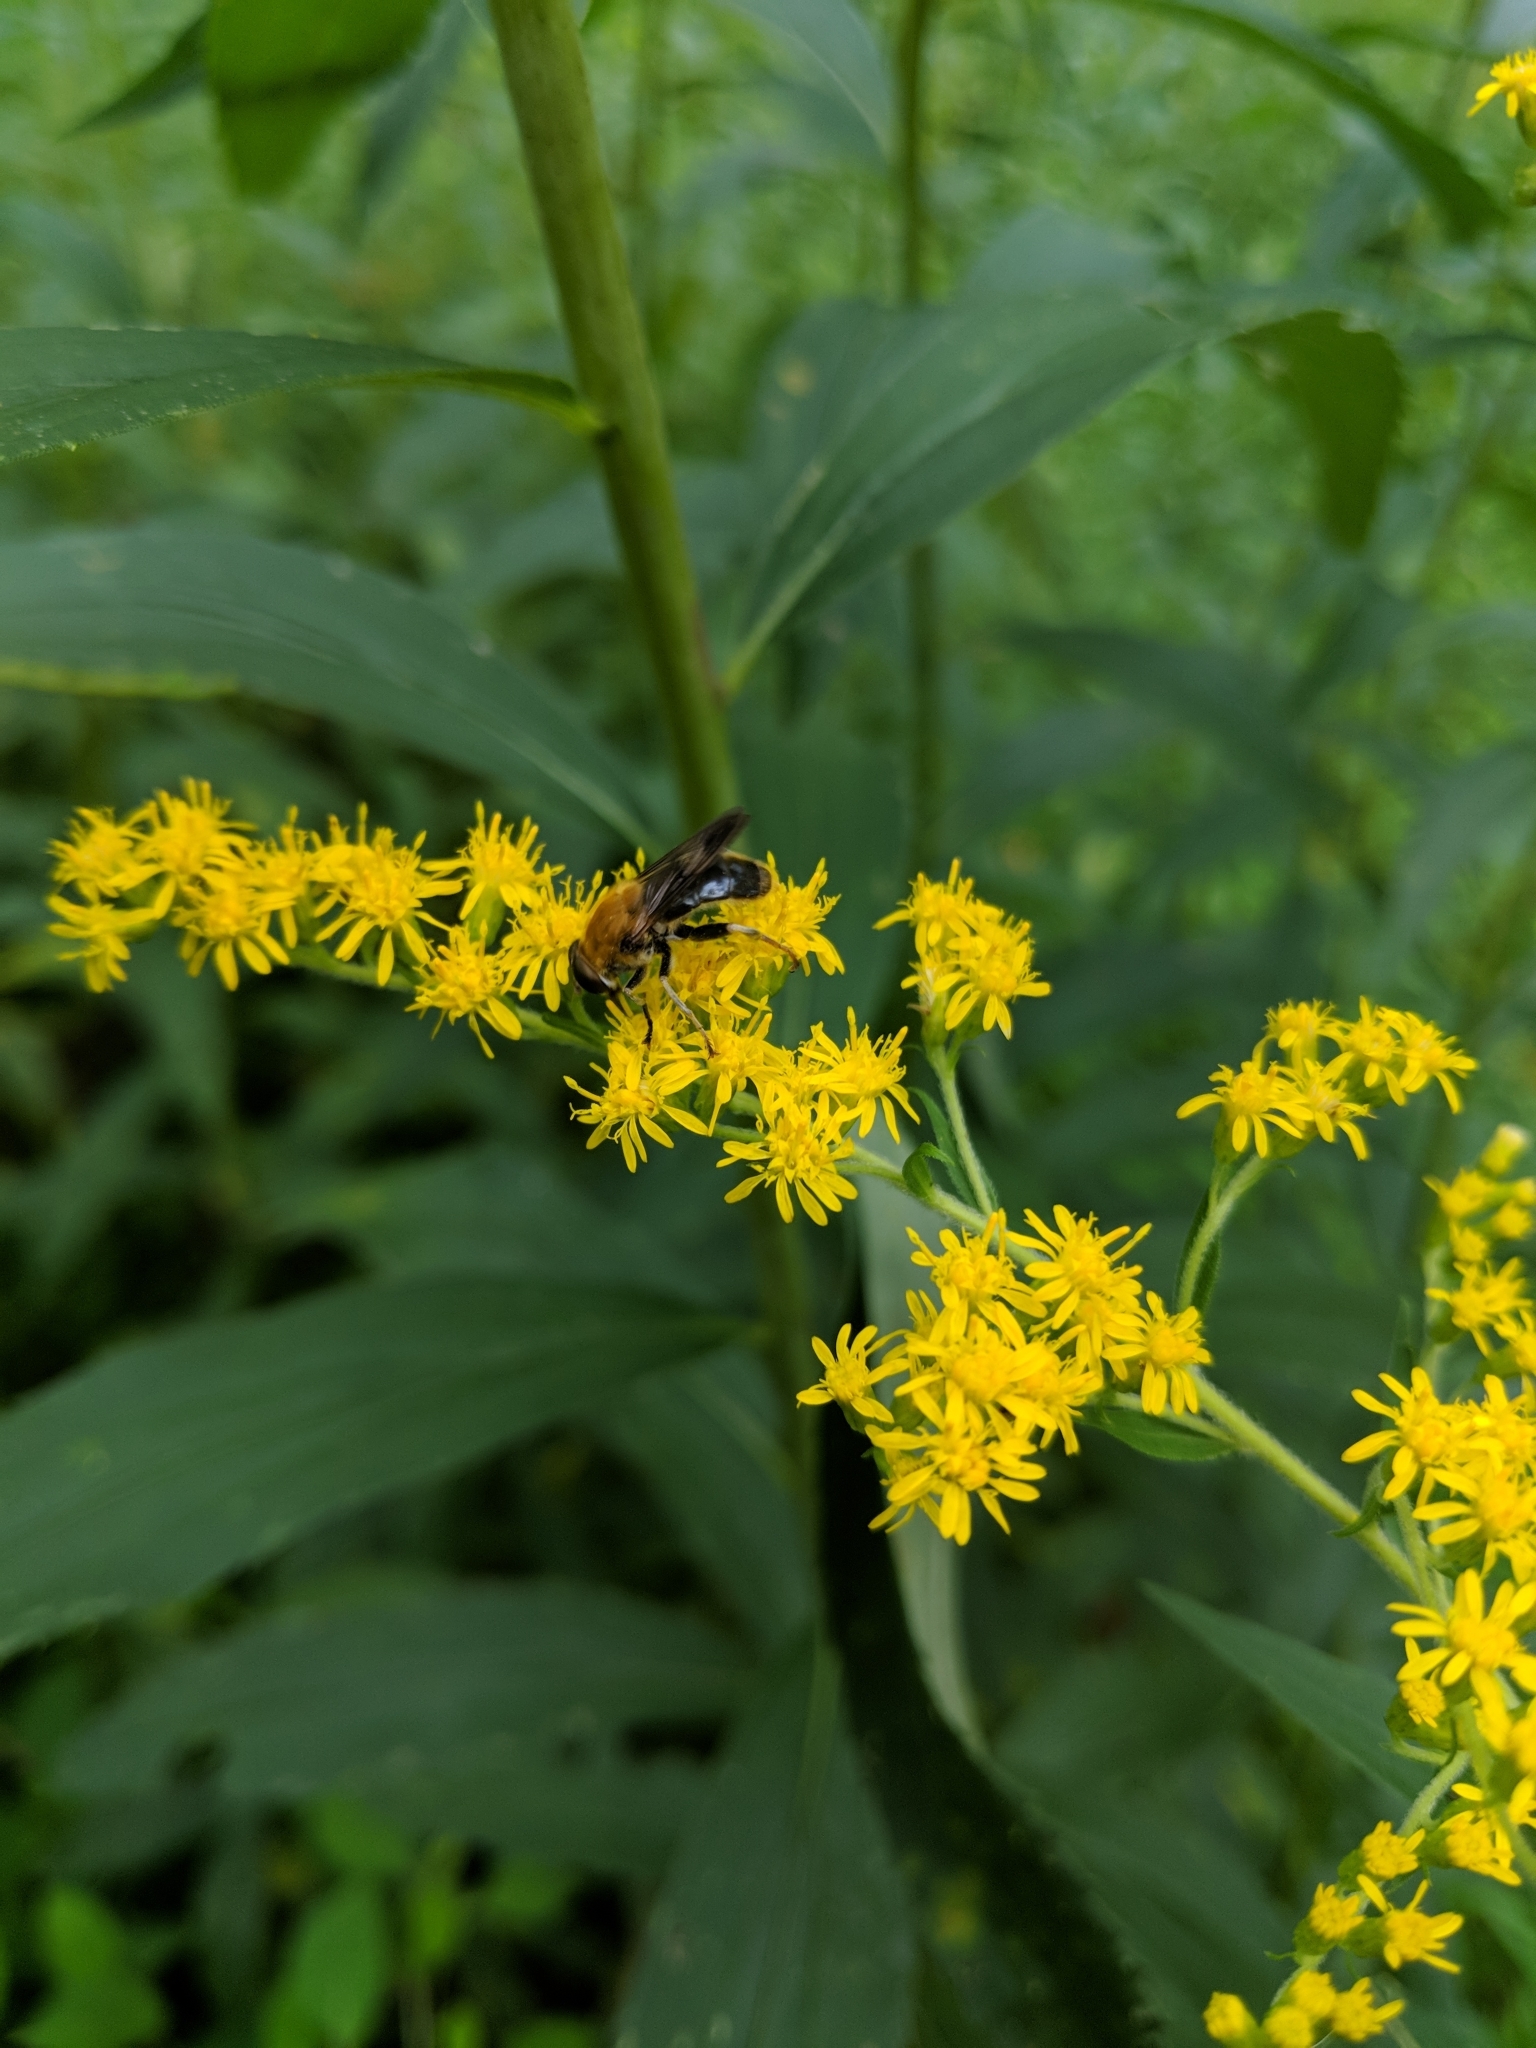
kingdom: Animalia
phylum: Arthropoda
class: Insecta
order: Diptera
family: Syrphidae
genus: Pterallastes
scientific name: Pterallastes thoracicus
